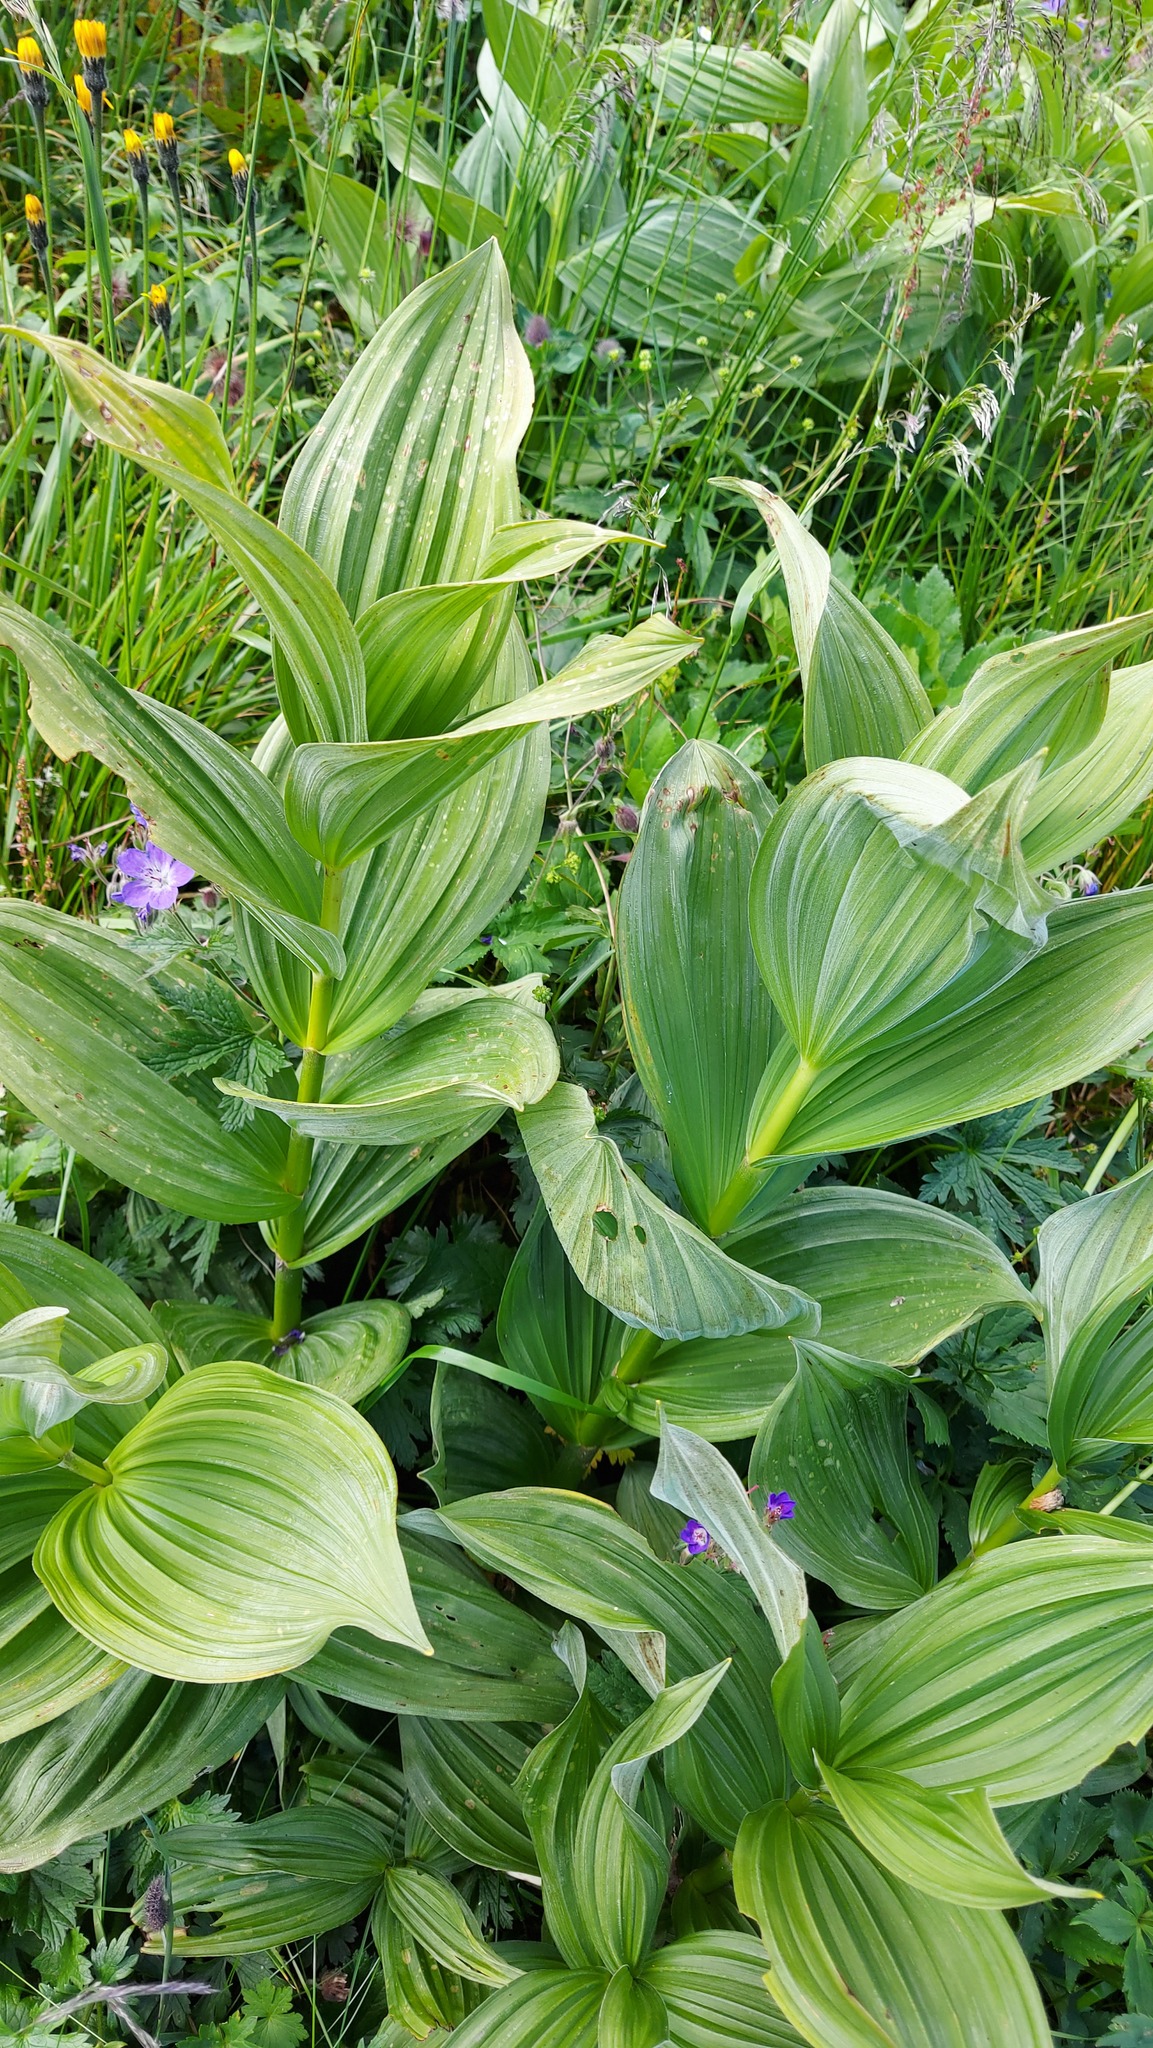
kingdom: Plantae
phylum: Tracheophyta
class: Liliopsida
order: Liliales
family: Melanthiaceae
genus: Veratrum
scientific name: Veratrum lobelianum
